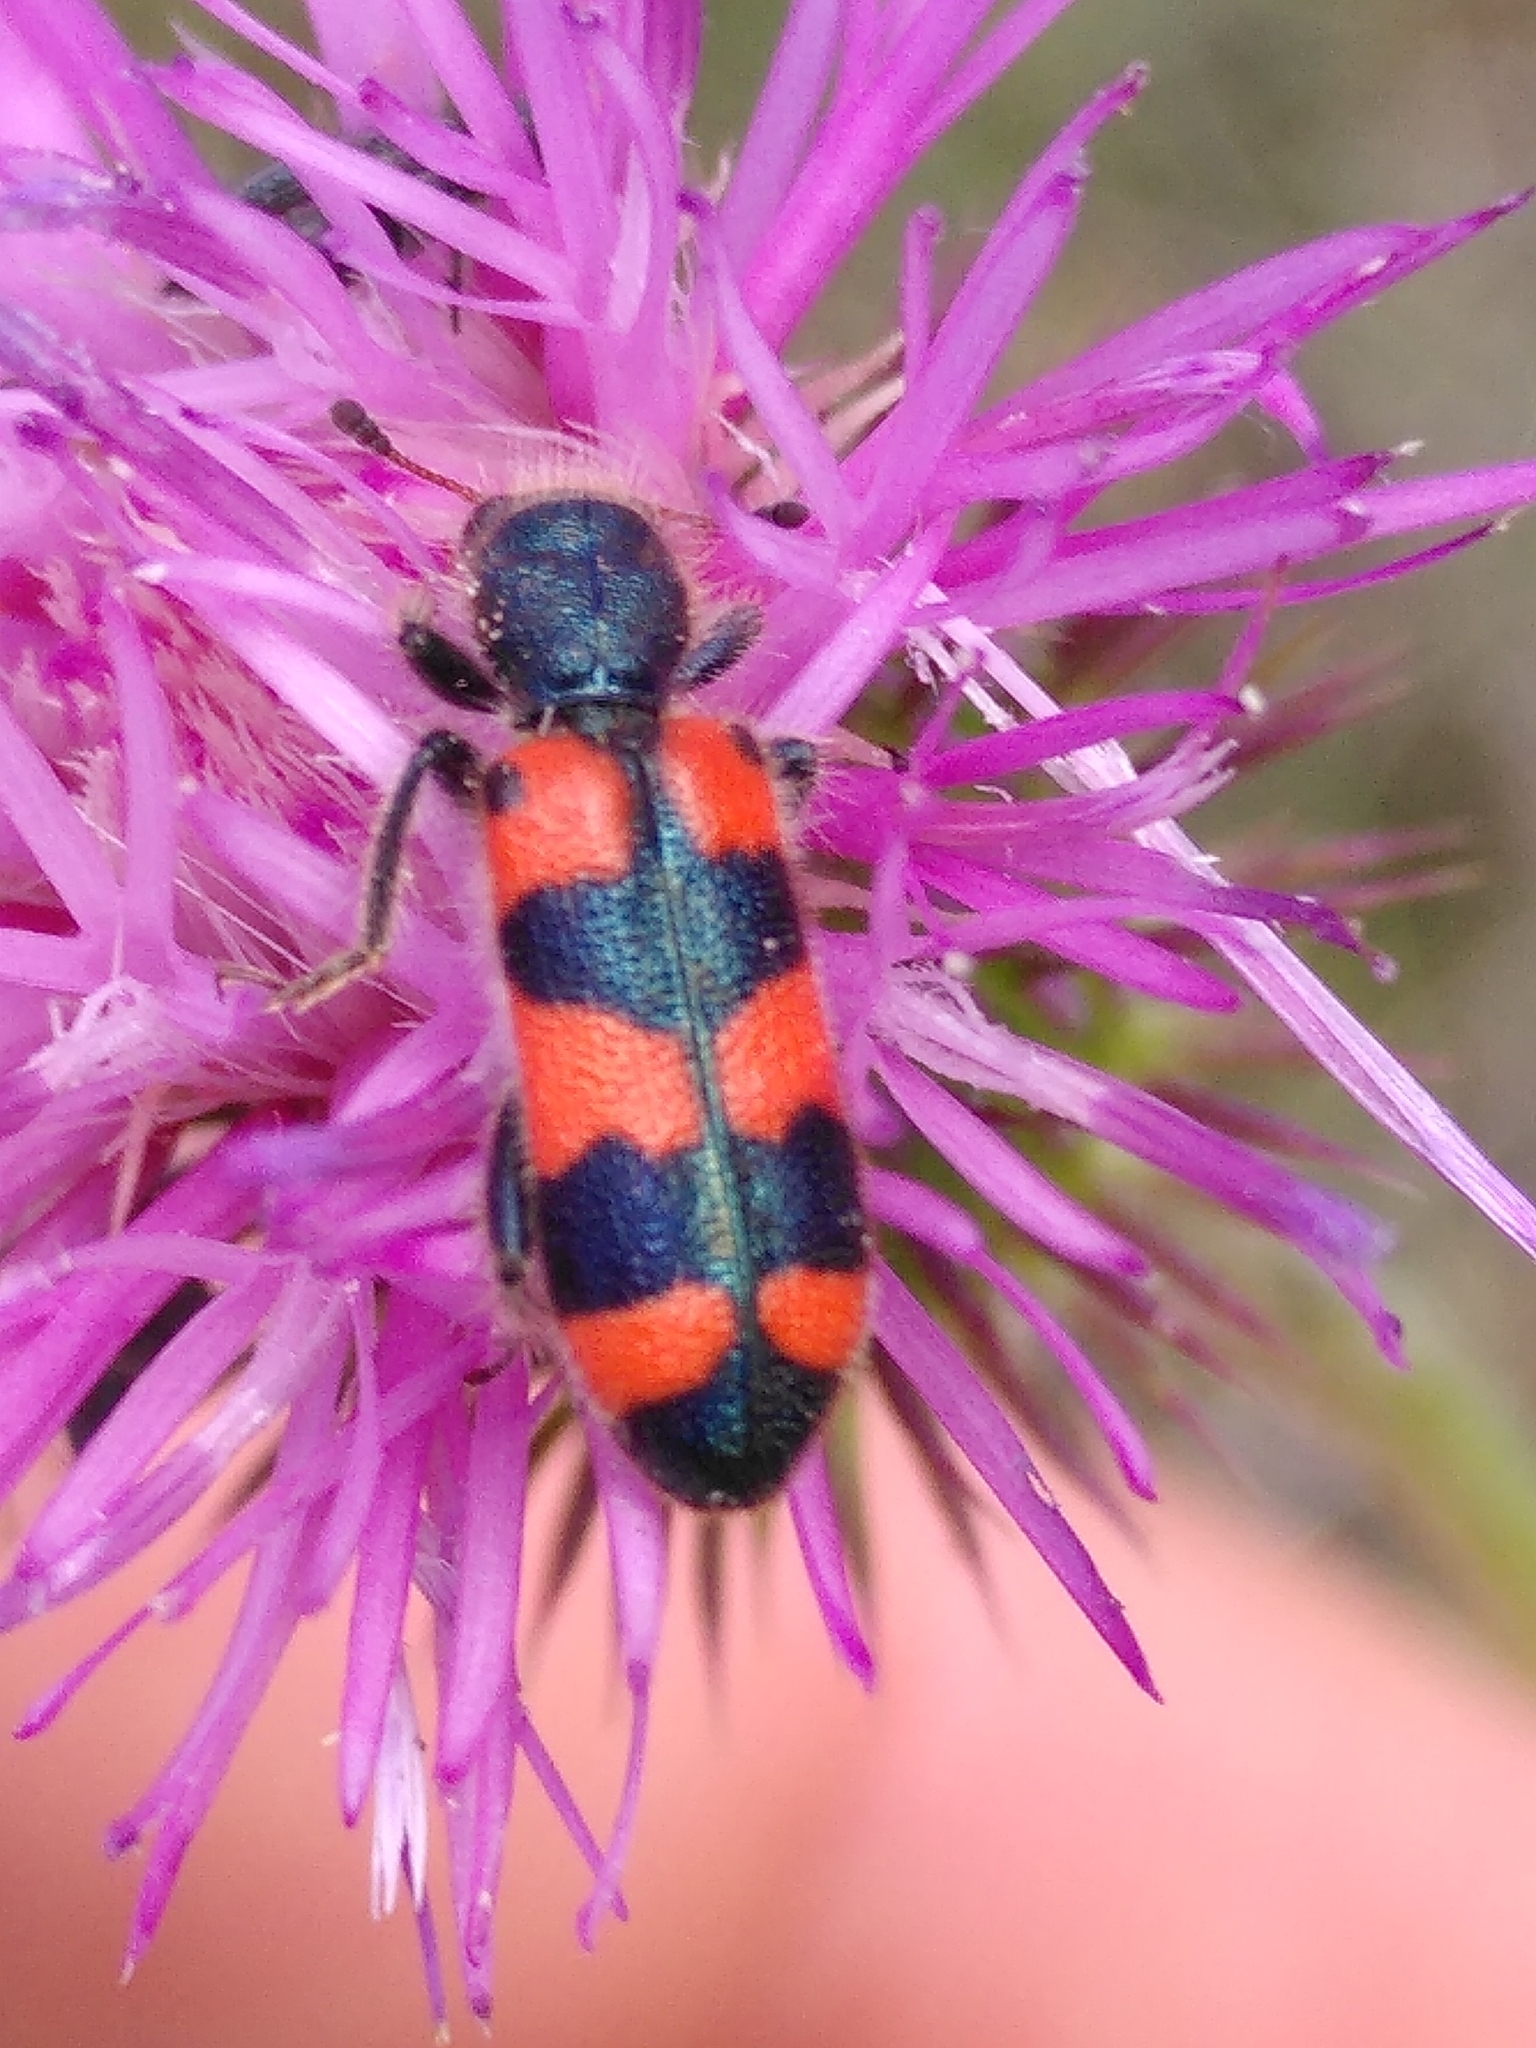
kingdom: Animalia
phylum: Arthropoda
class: Insecta
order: Coleoptera
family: Cleridae
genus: Trichodes
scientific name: Trichodes leucopsideus
